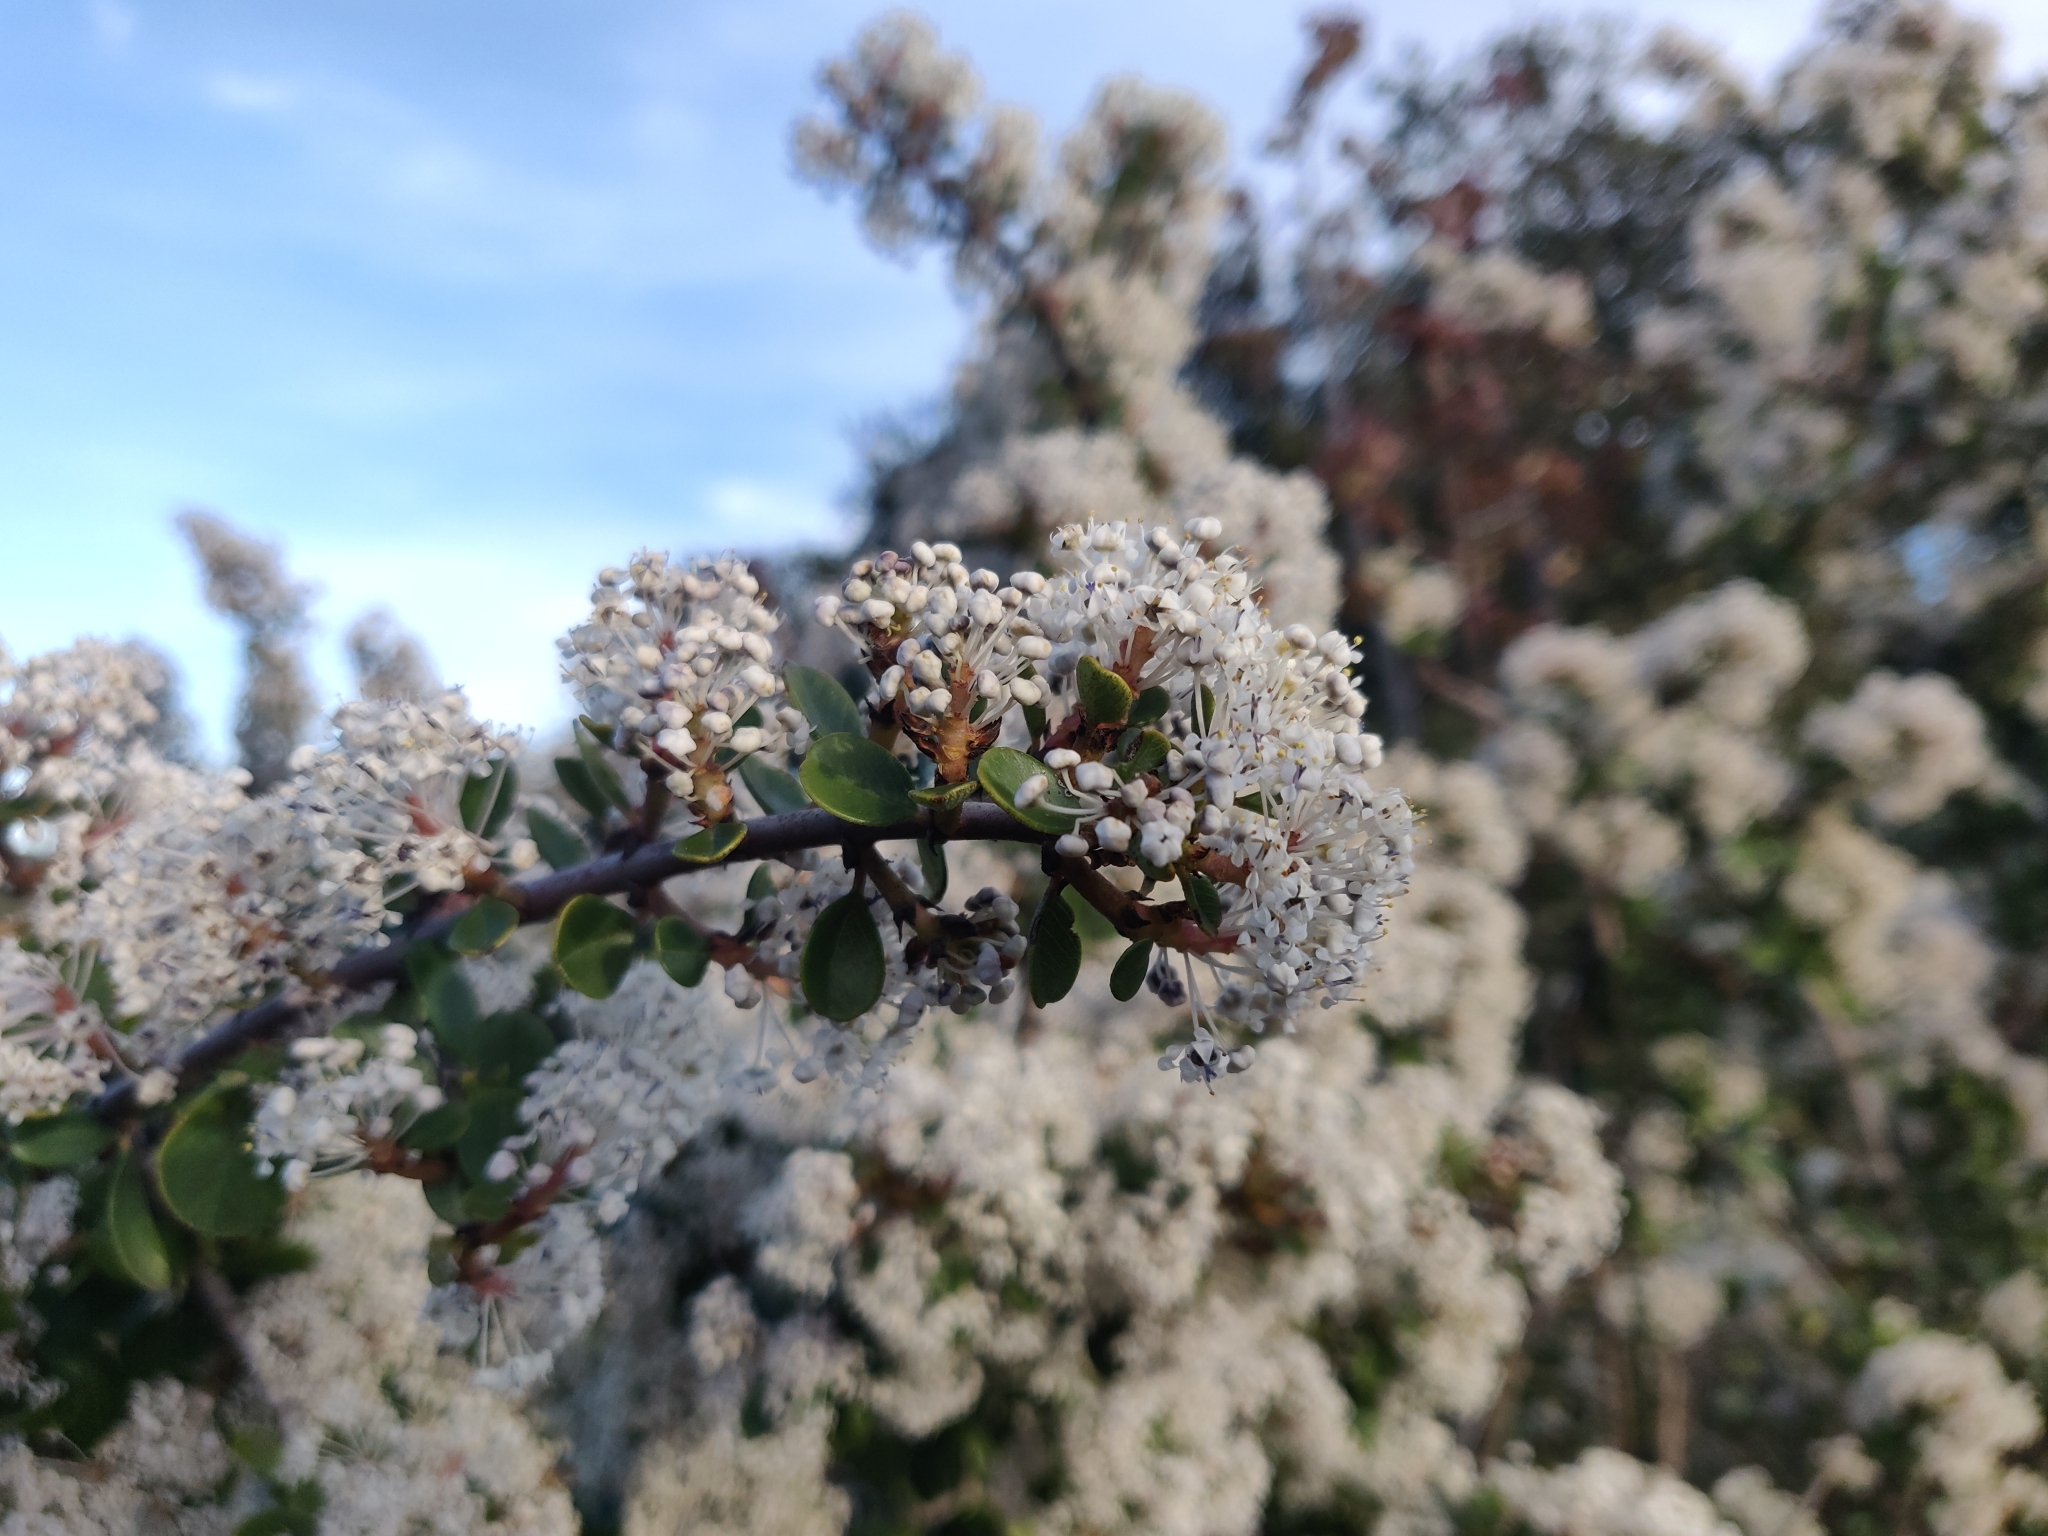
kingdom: Plantae
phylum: Tracheophyta
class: Magnoliopsida
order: Rosales
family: Rhamnaceae
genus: Ceanothus
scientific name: Ceanothus cuneatus
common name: Cuneate ceanothus
